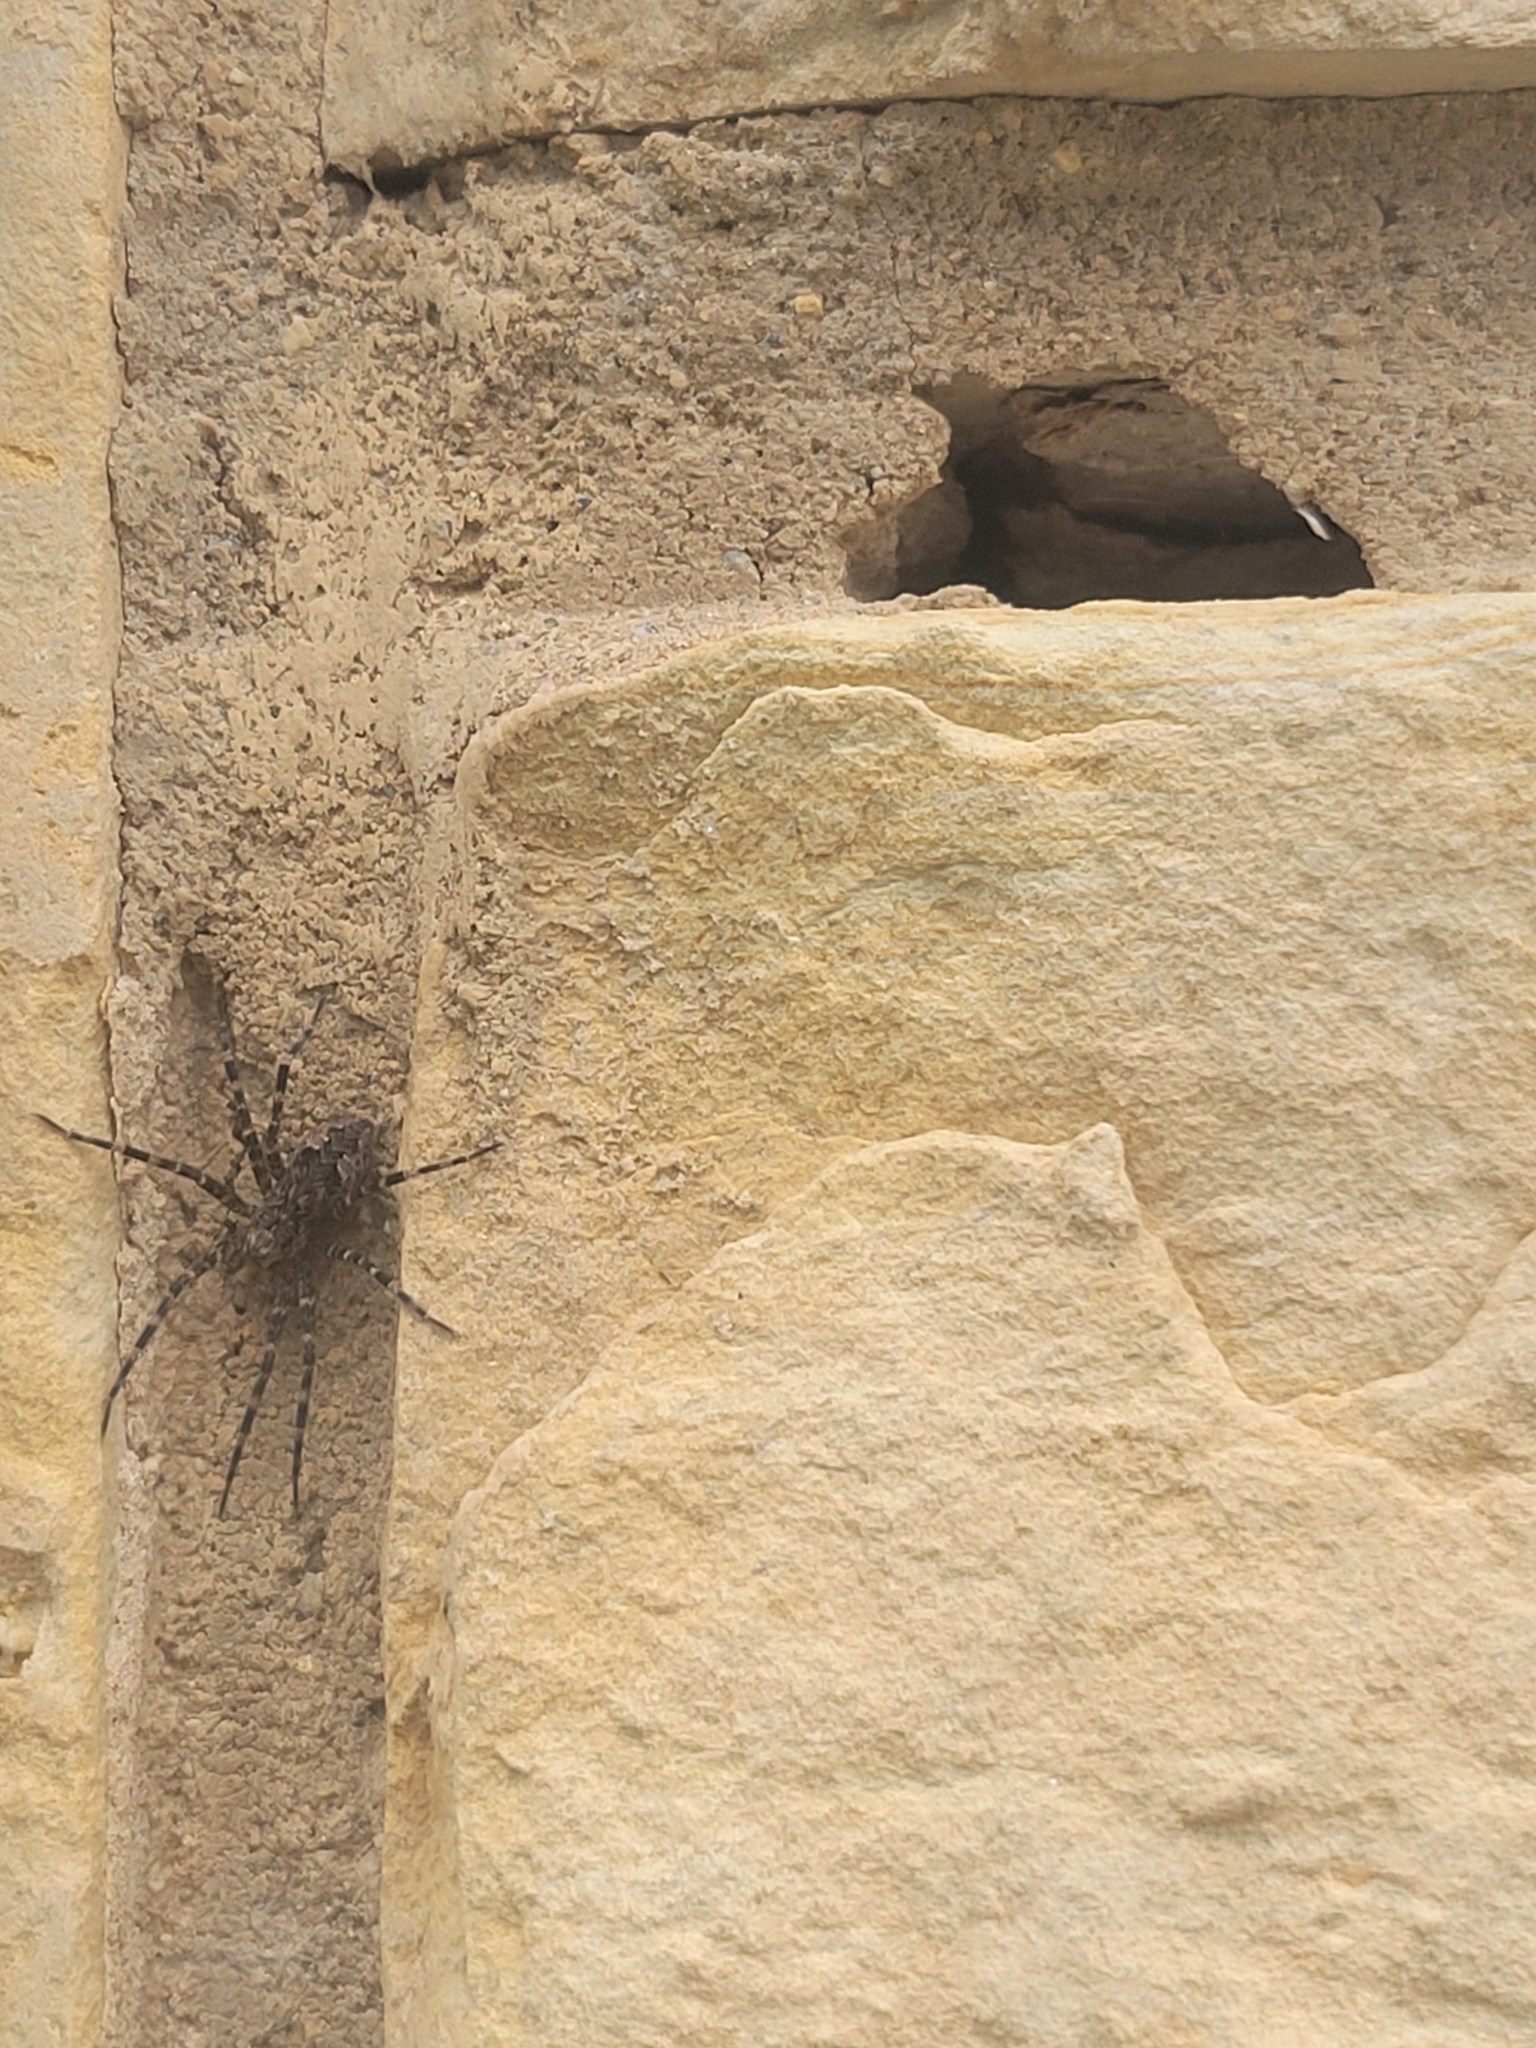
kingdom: Animalia
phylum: Arthropoda
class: Arachnida
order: Araneae
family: Pisauridae
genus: Dolomedes
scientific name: Dolomedes tenebrosus
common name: Dark fishing spider
